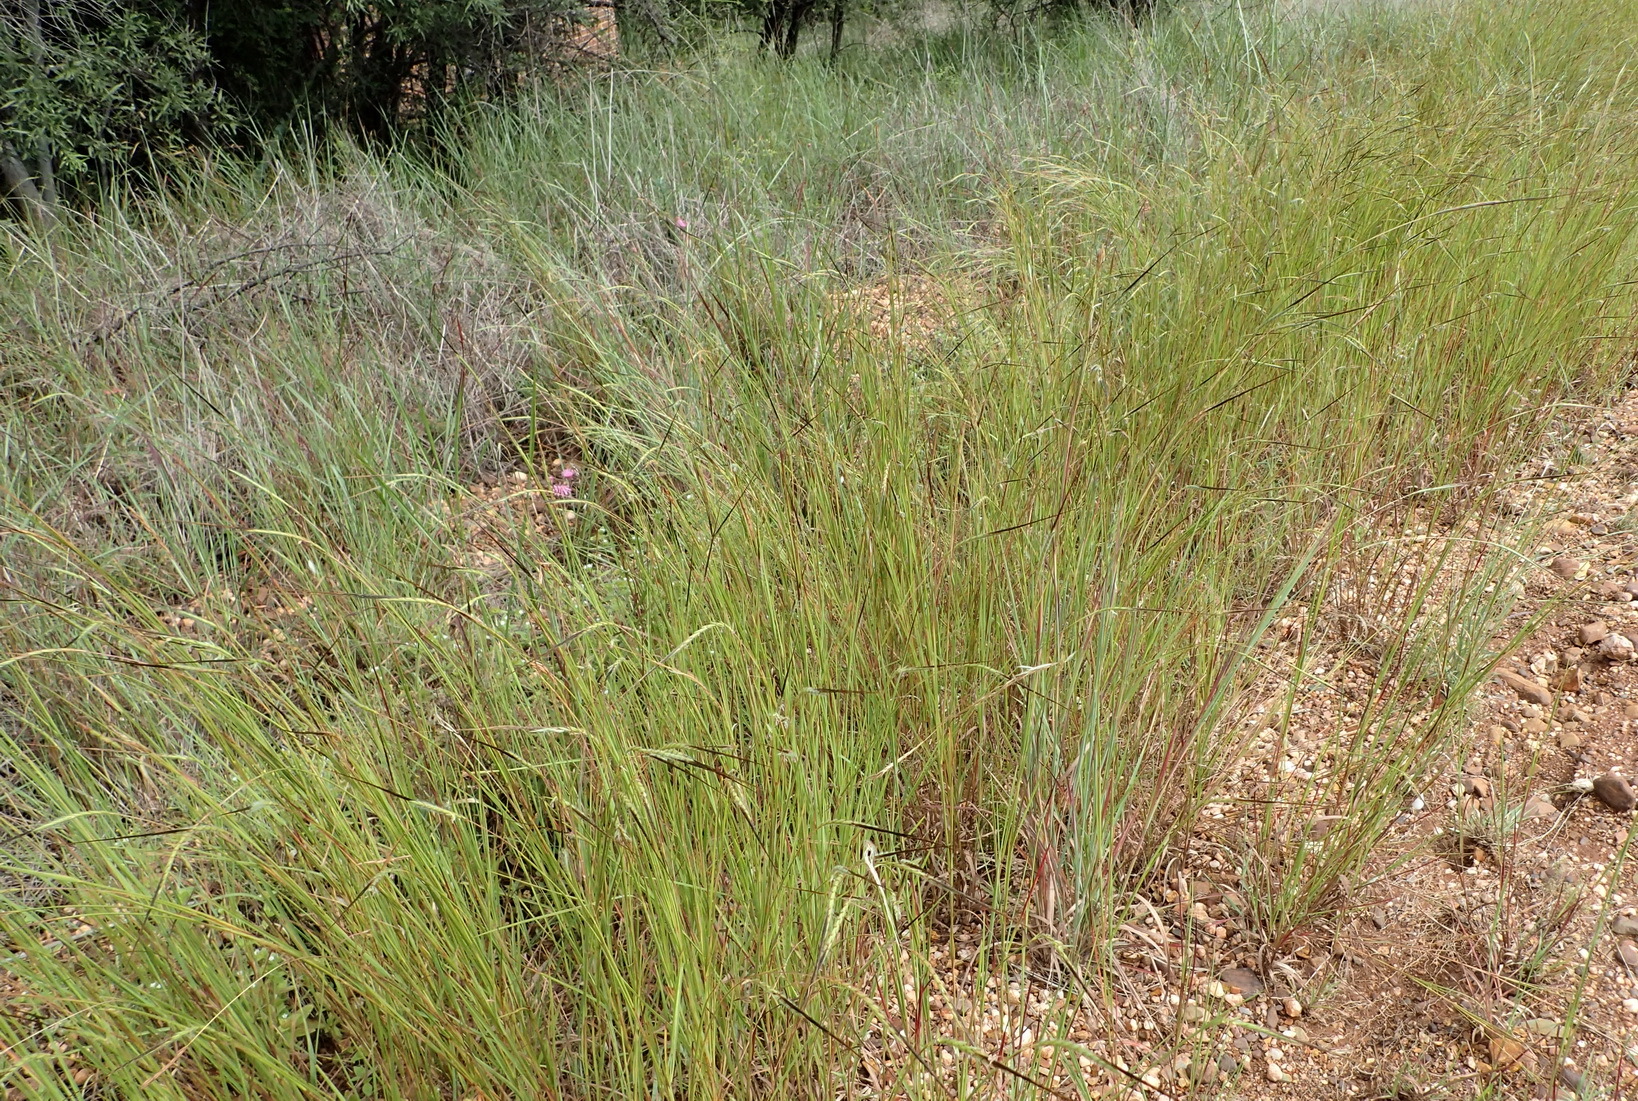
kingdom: Plantae
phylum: Tracheophyta
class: Liliopsida
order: Poales
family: Poaceae
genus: Heteropogon
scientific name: Heteropogon contortus
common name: Tanglehead
